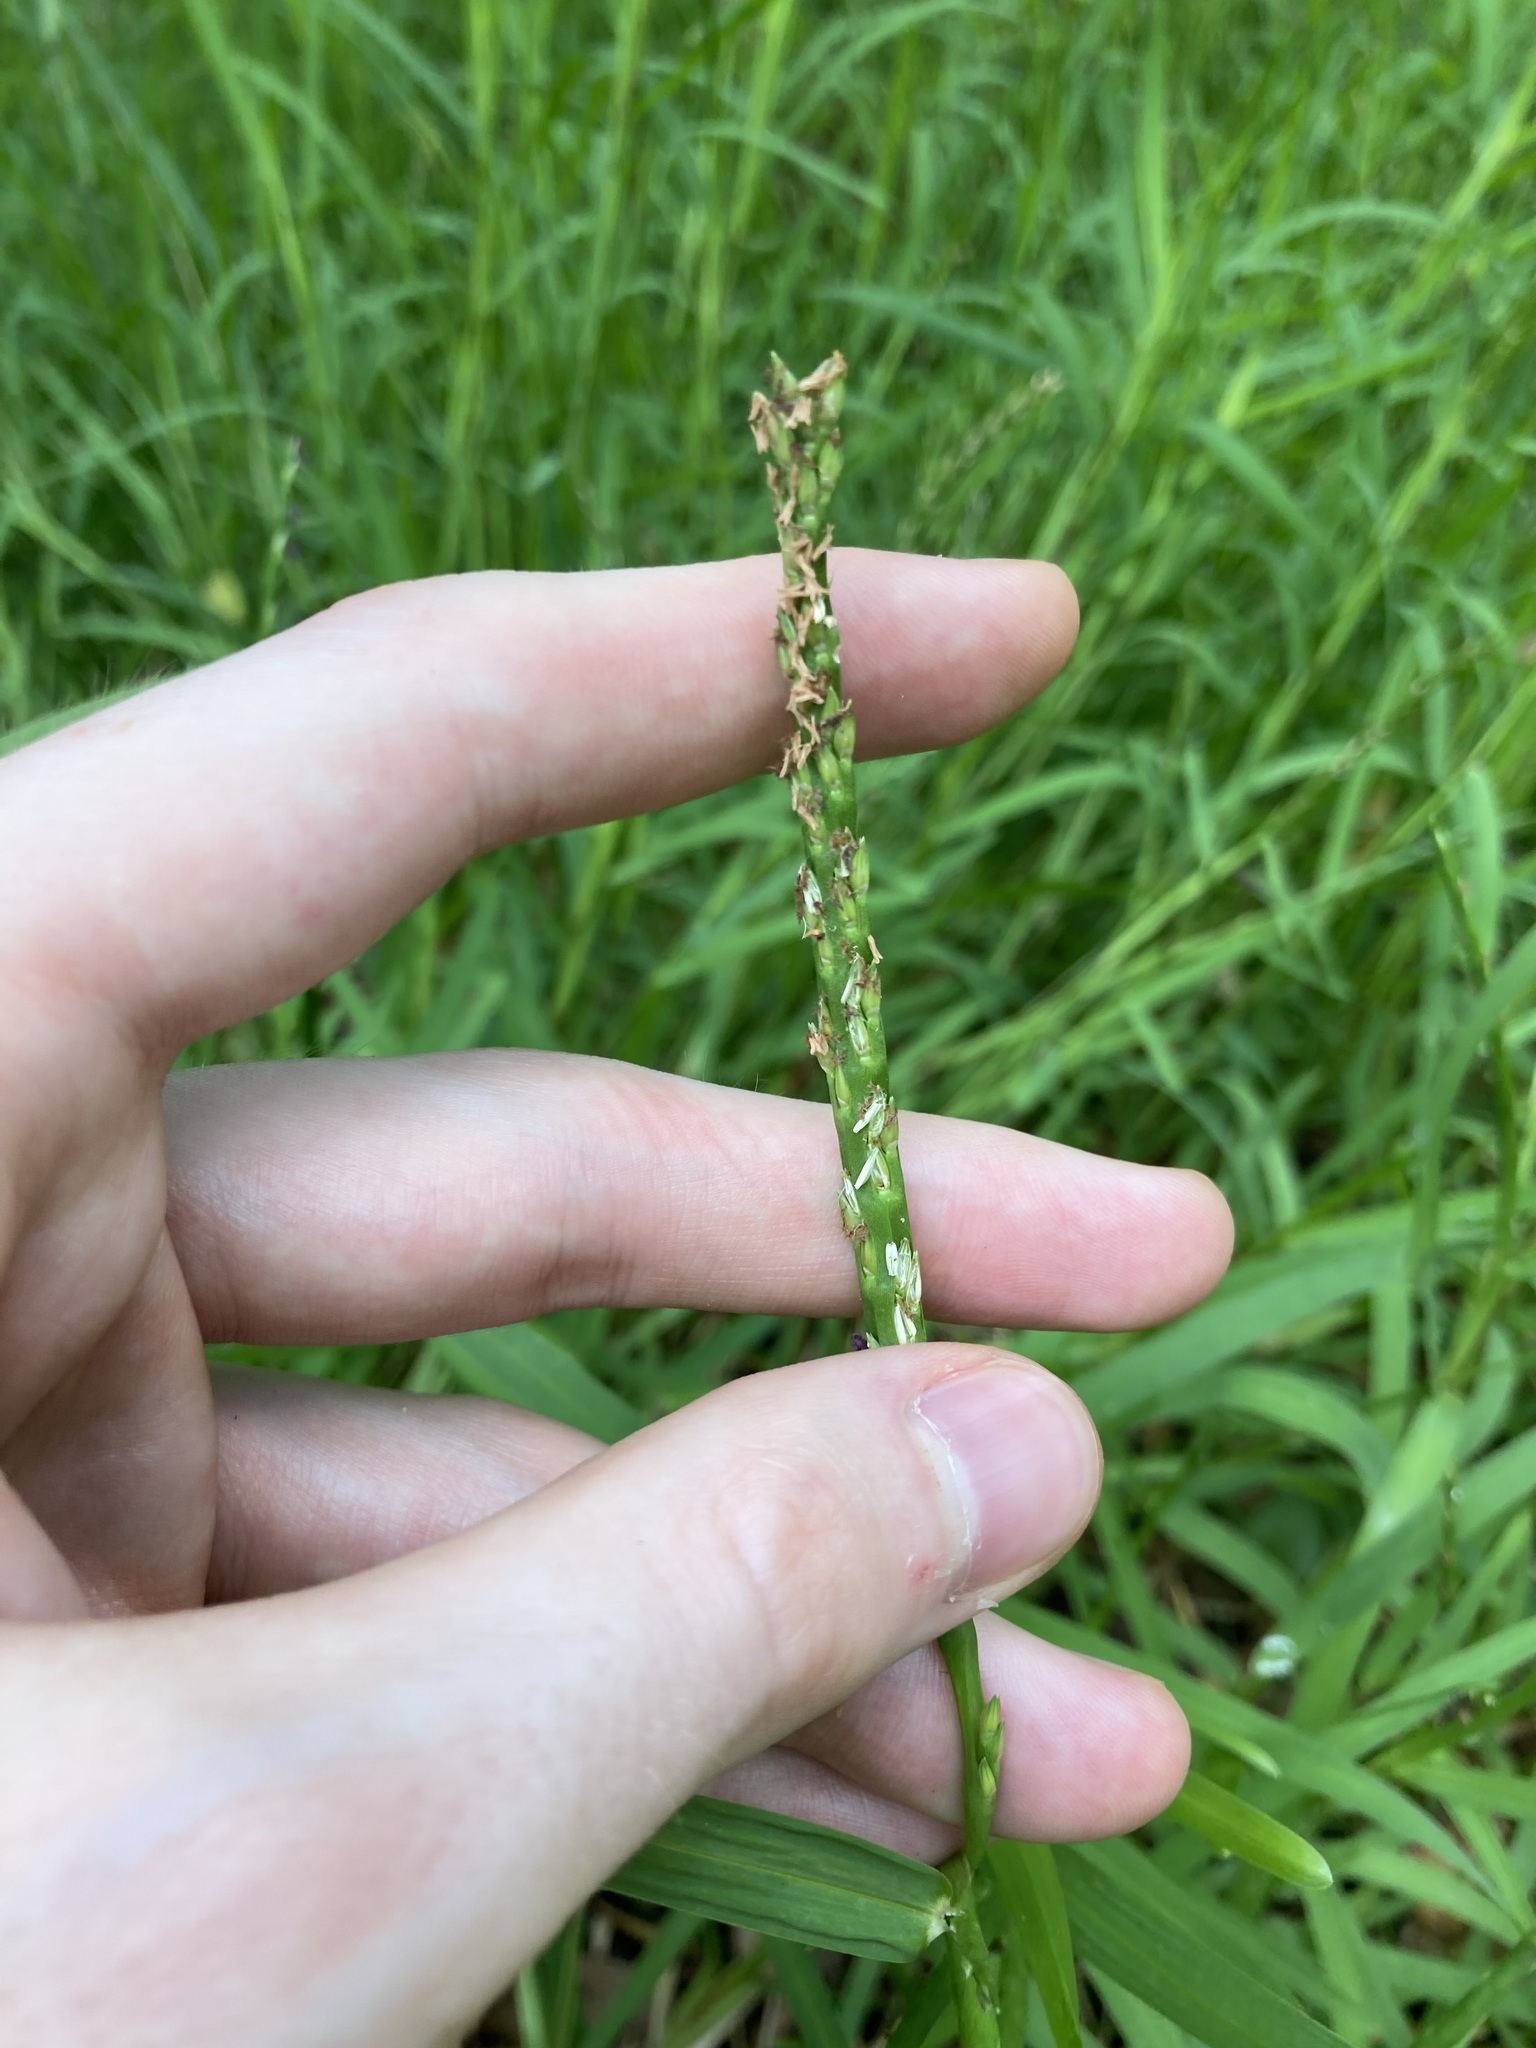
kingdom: Plantae
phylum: Tracheophyta
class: Liliopsida
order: Poales
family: Poaceae
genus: Stenotaphrum
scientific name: Stenotaphrum secundatum
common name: St. augustine grass
